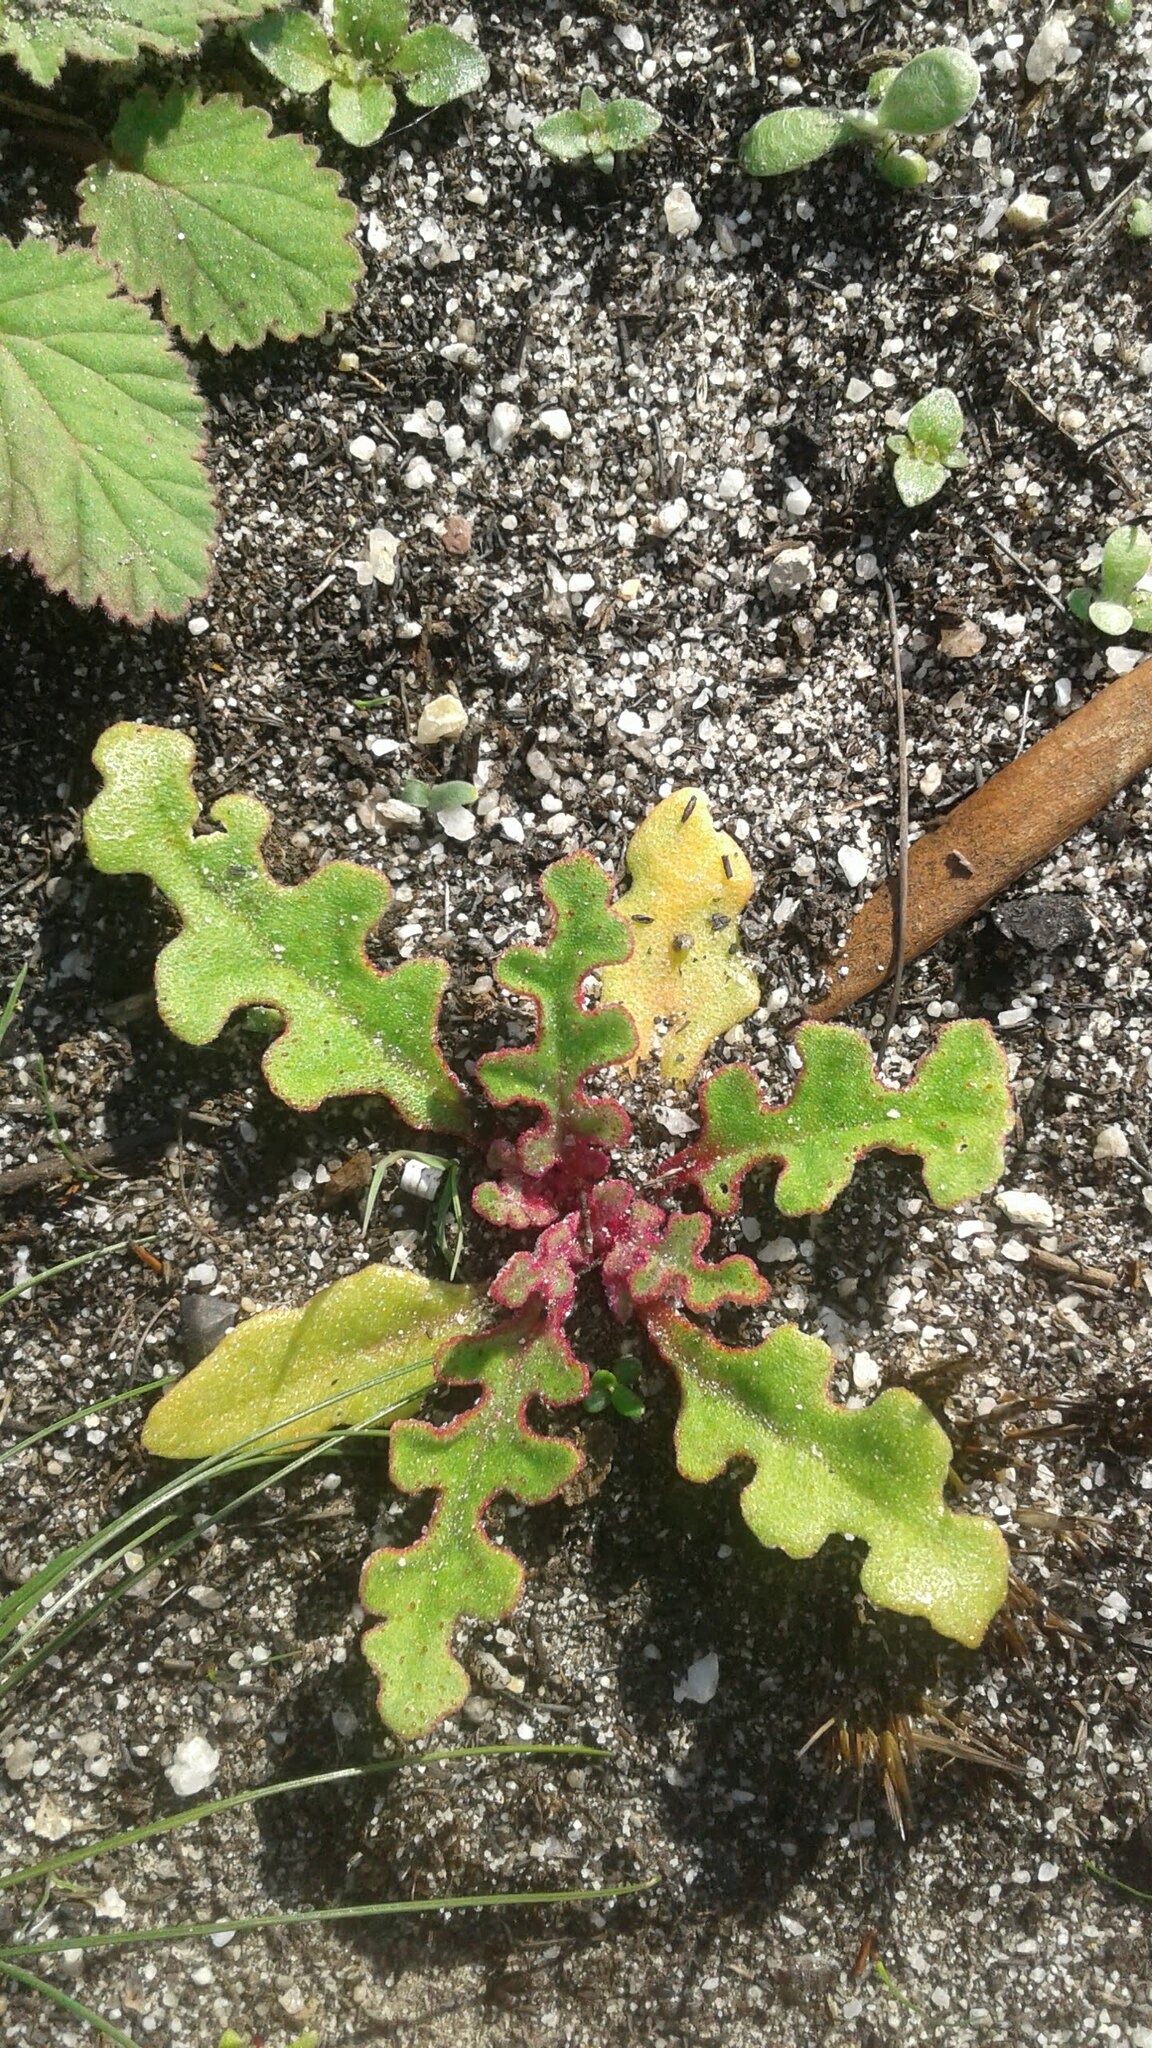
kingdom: Plantae
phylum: Tracheophyta
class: Magnoliopsida
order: Caryophyllales
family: Aizoaceae
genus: Cleretum
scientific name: Cleretum herrei
